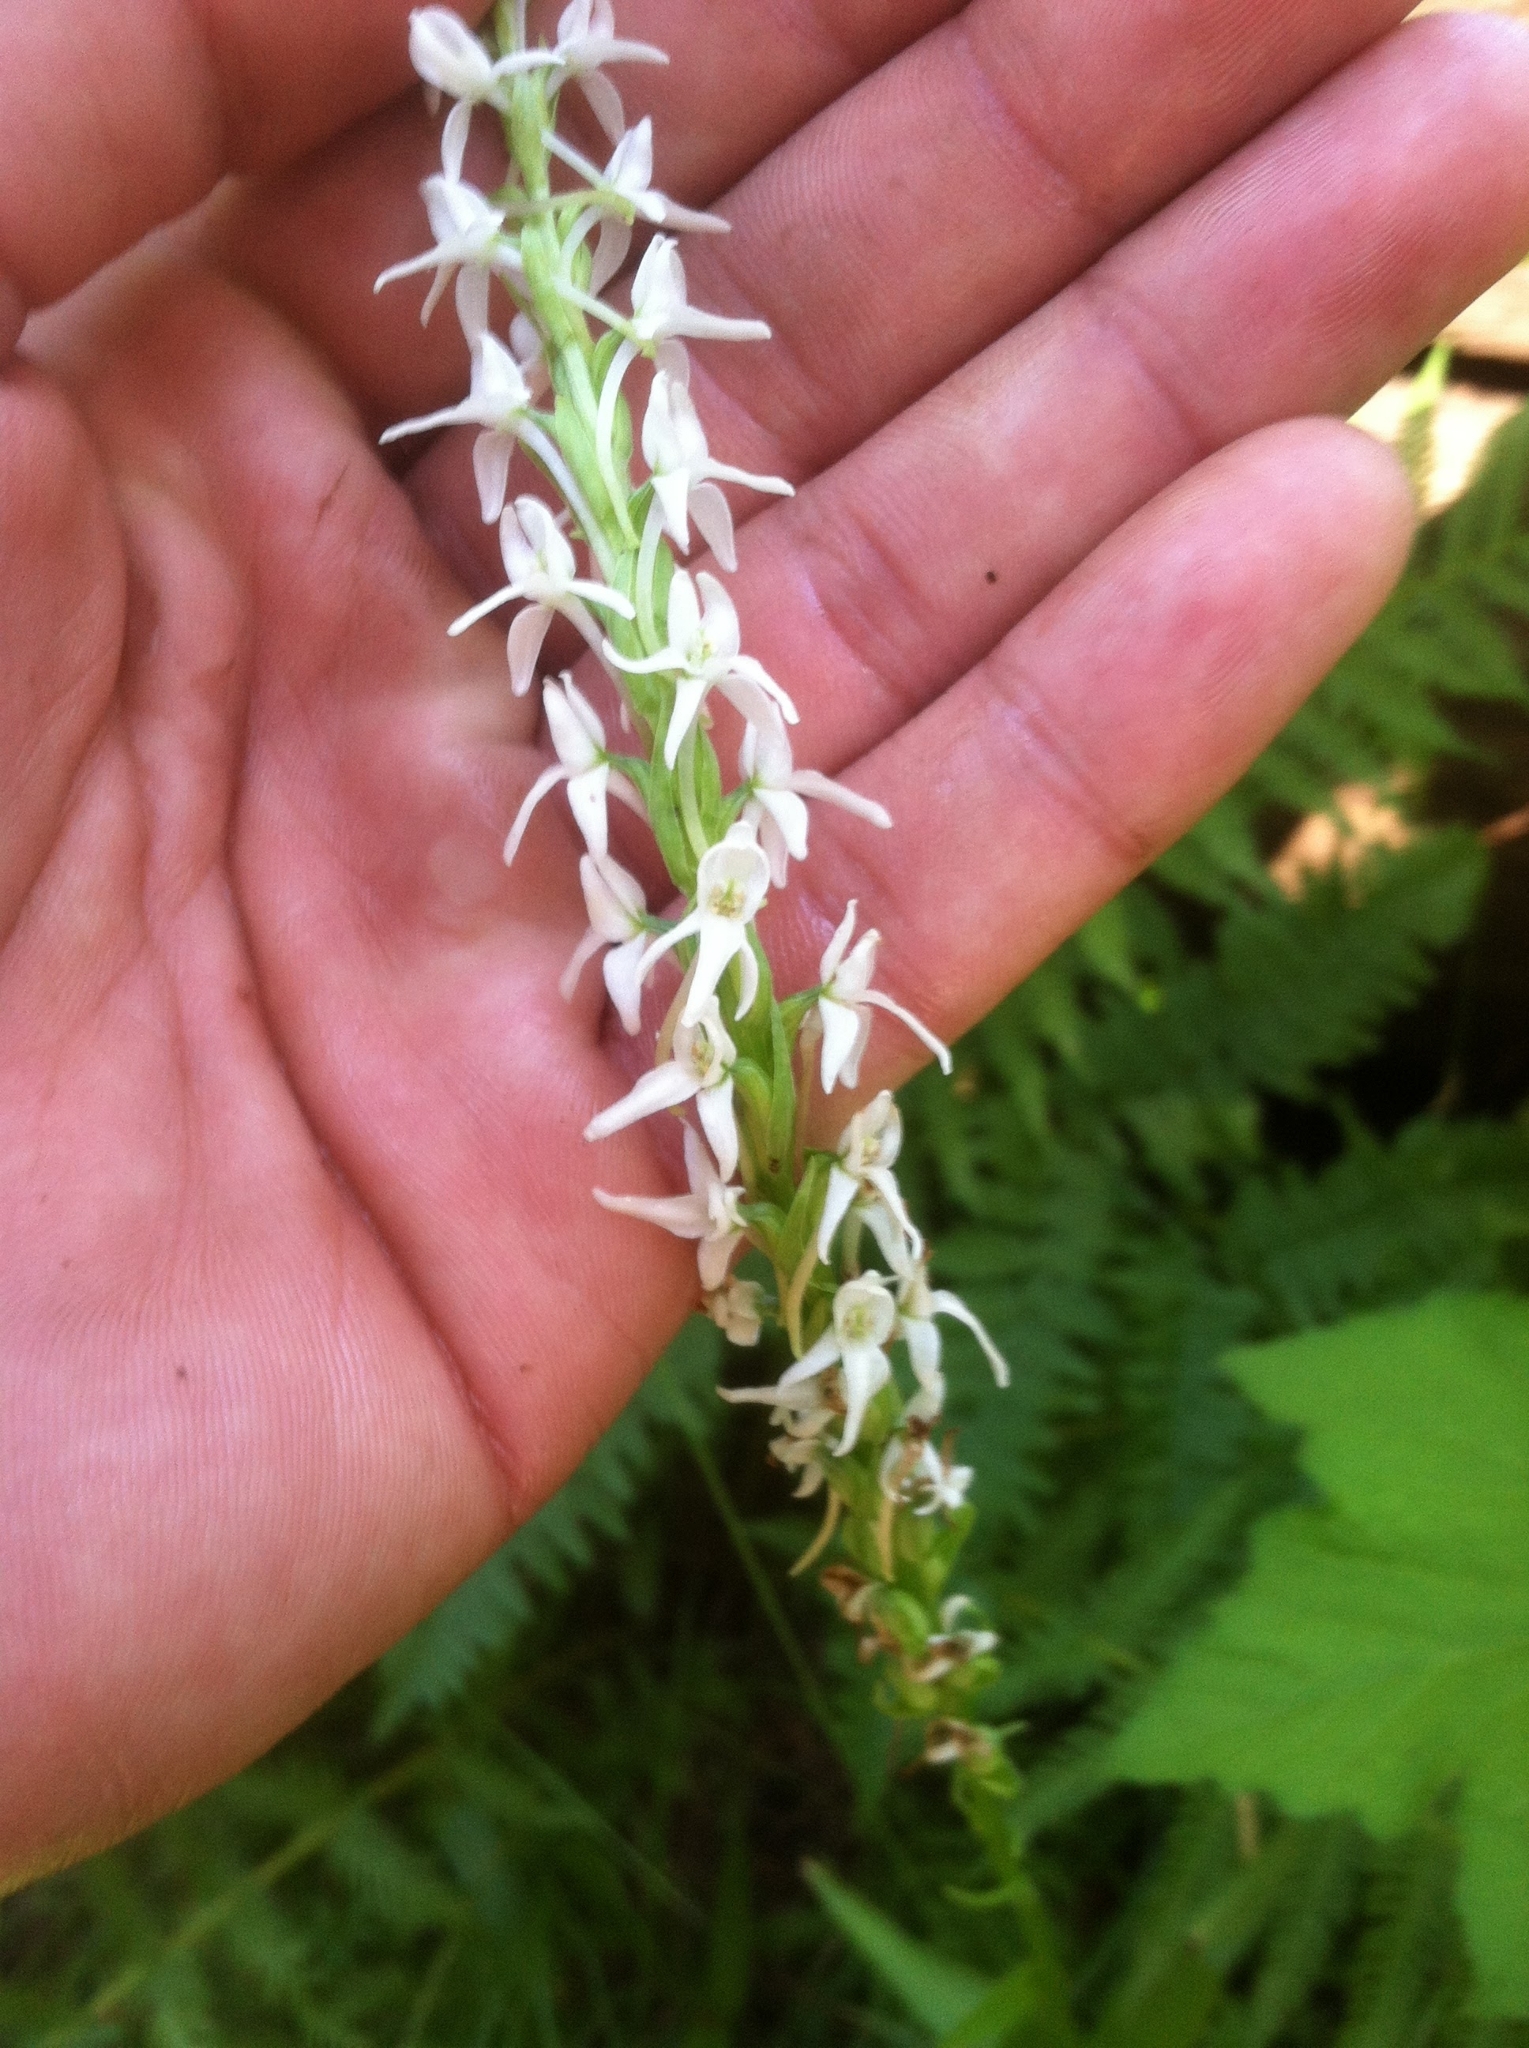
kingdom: Plantae
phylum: Tracheophyta
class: Liliopsida
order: Asparagales
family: Orchidaceae
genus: Platanthera
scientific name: Platanthera dilatata
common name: Bog candles
